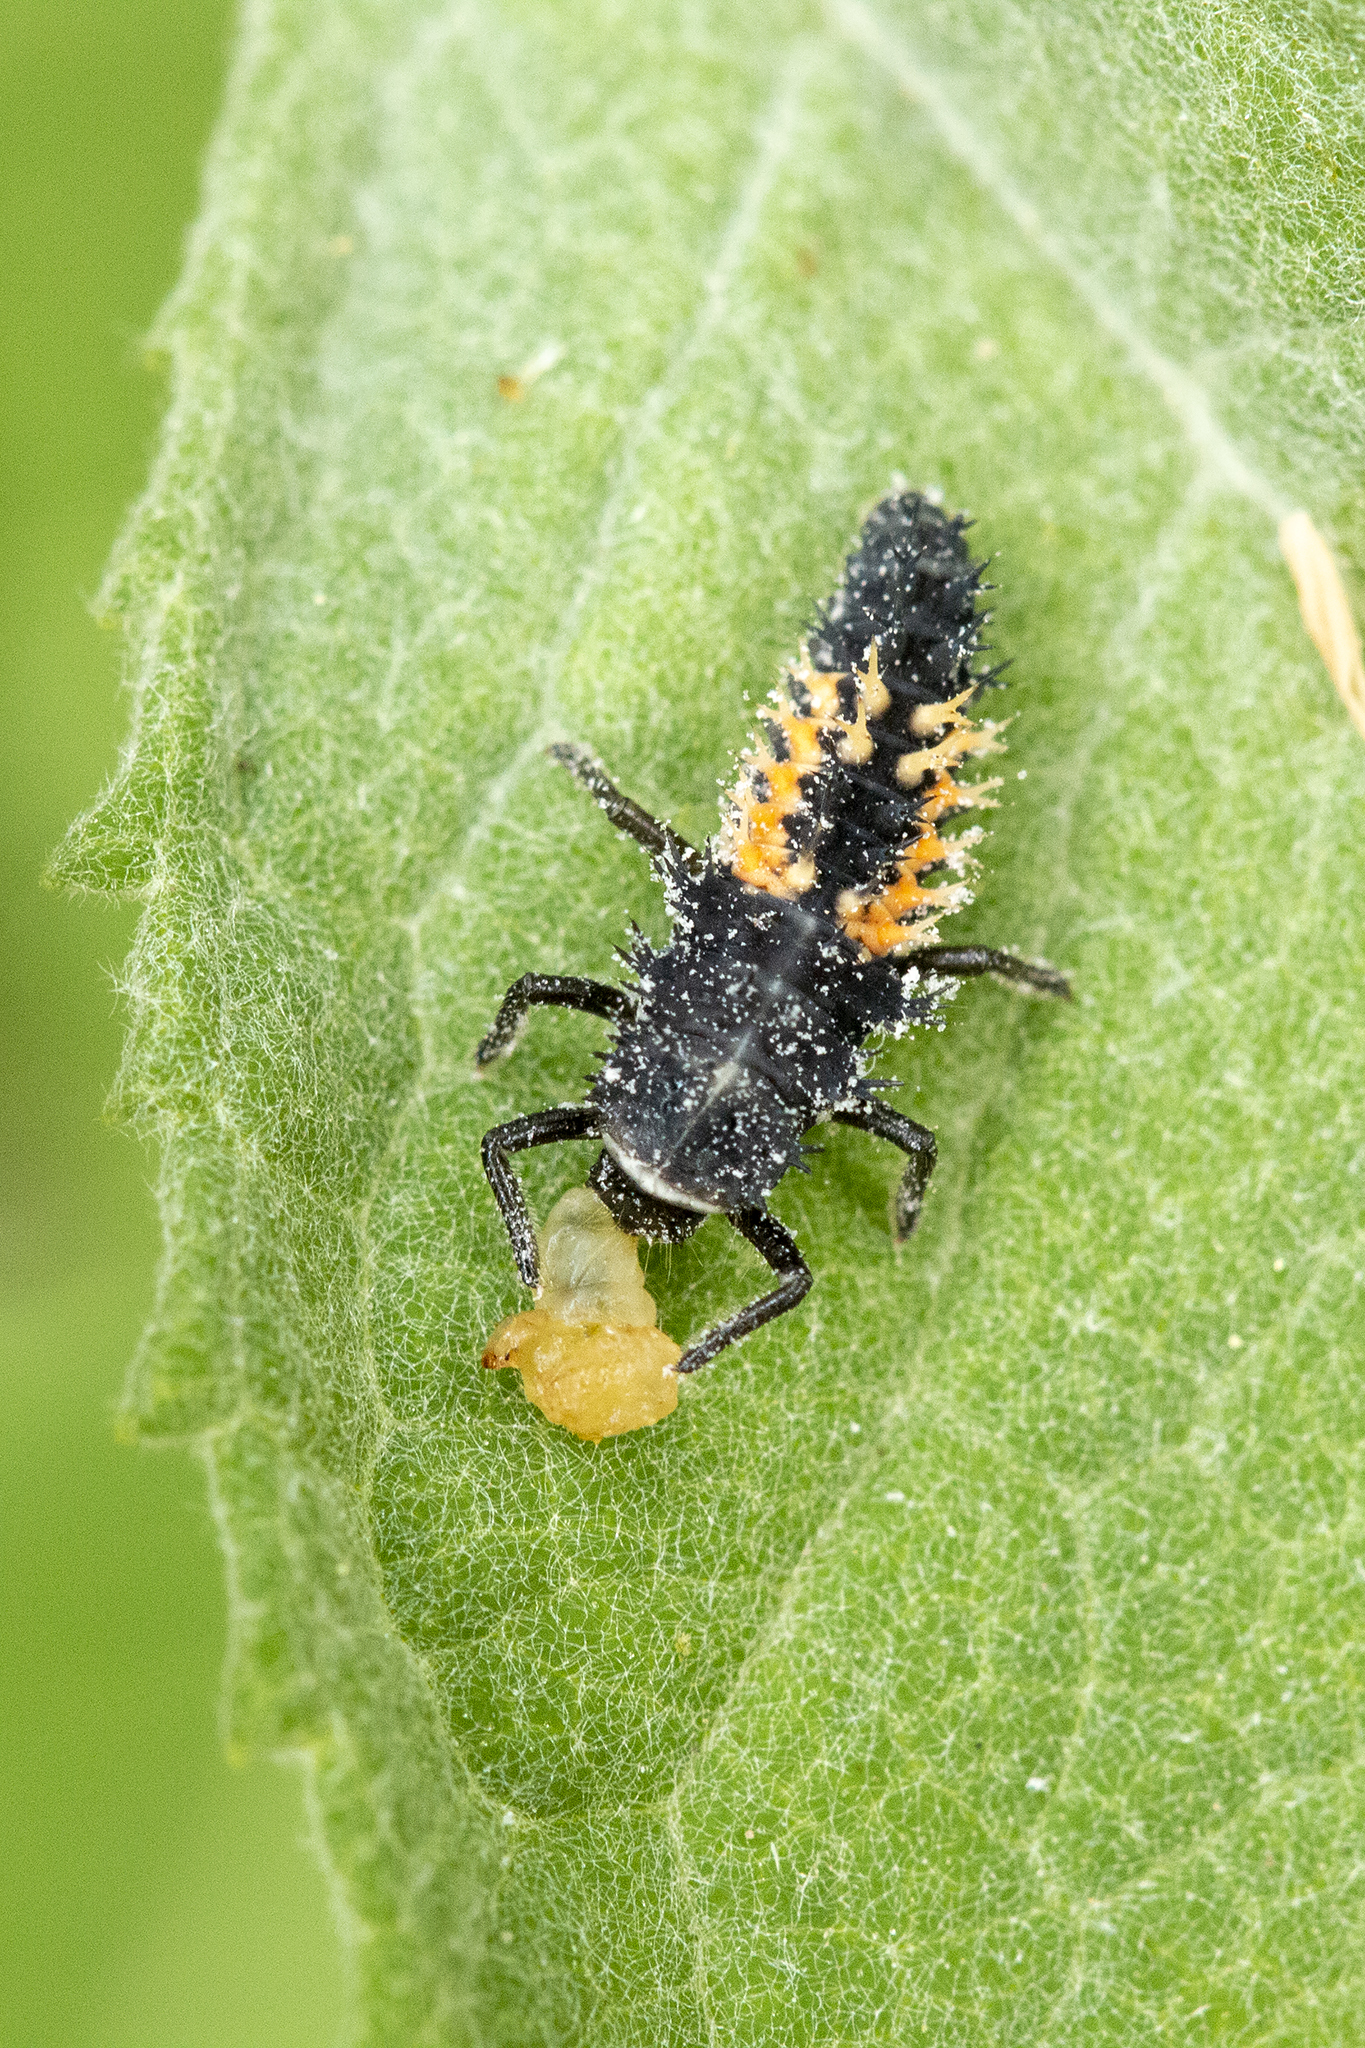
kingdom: Animalia
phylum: Arthropoda
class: Insecta
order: Coleoptera
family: Coccinellidae
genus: Harmonia
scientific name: Harmonia axyridis
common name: Harlequin ladybird
